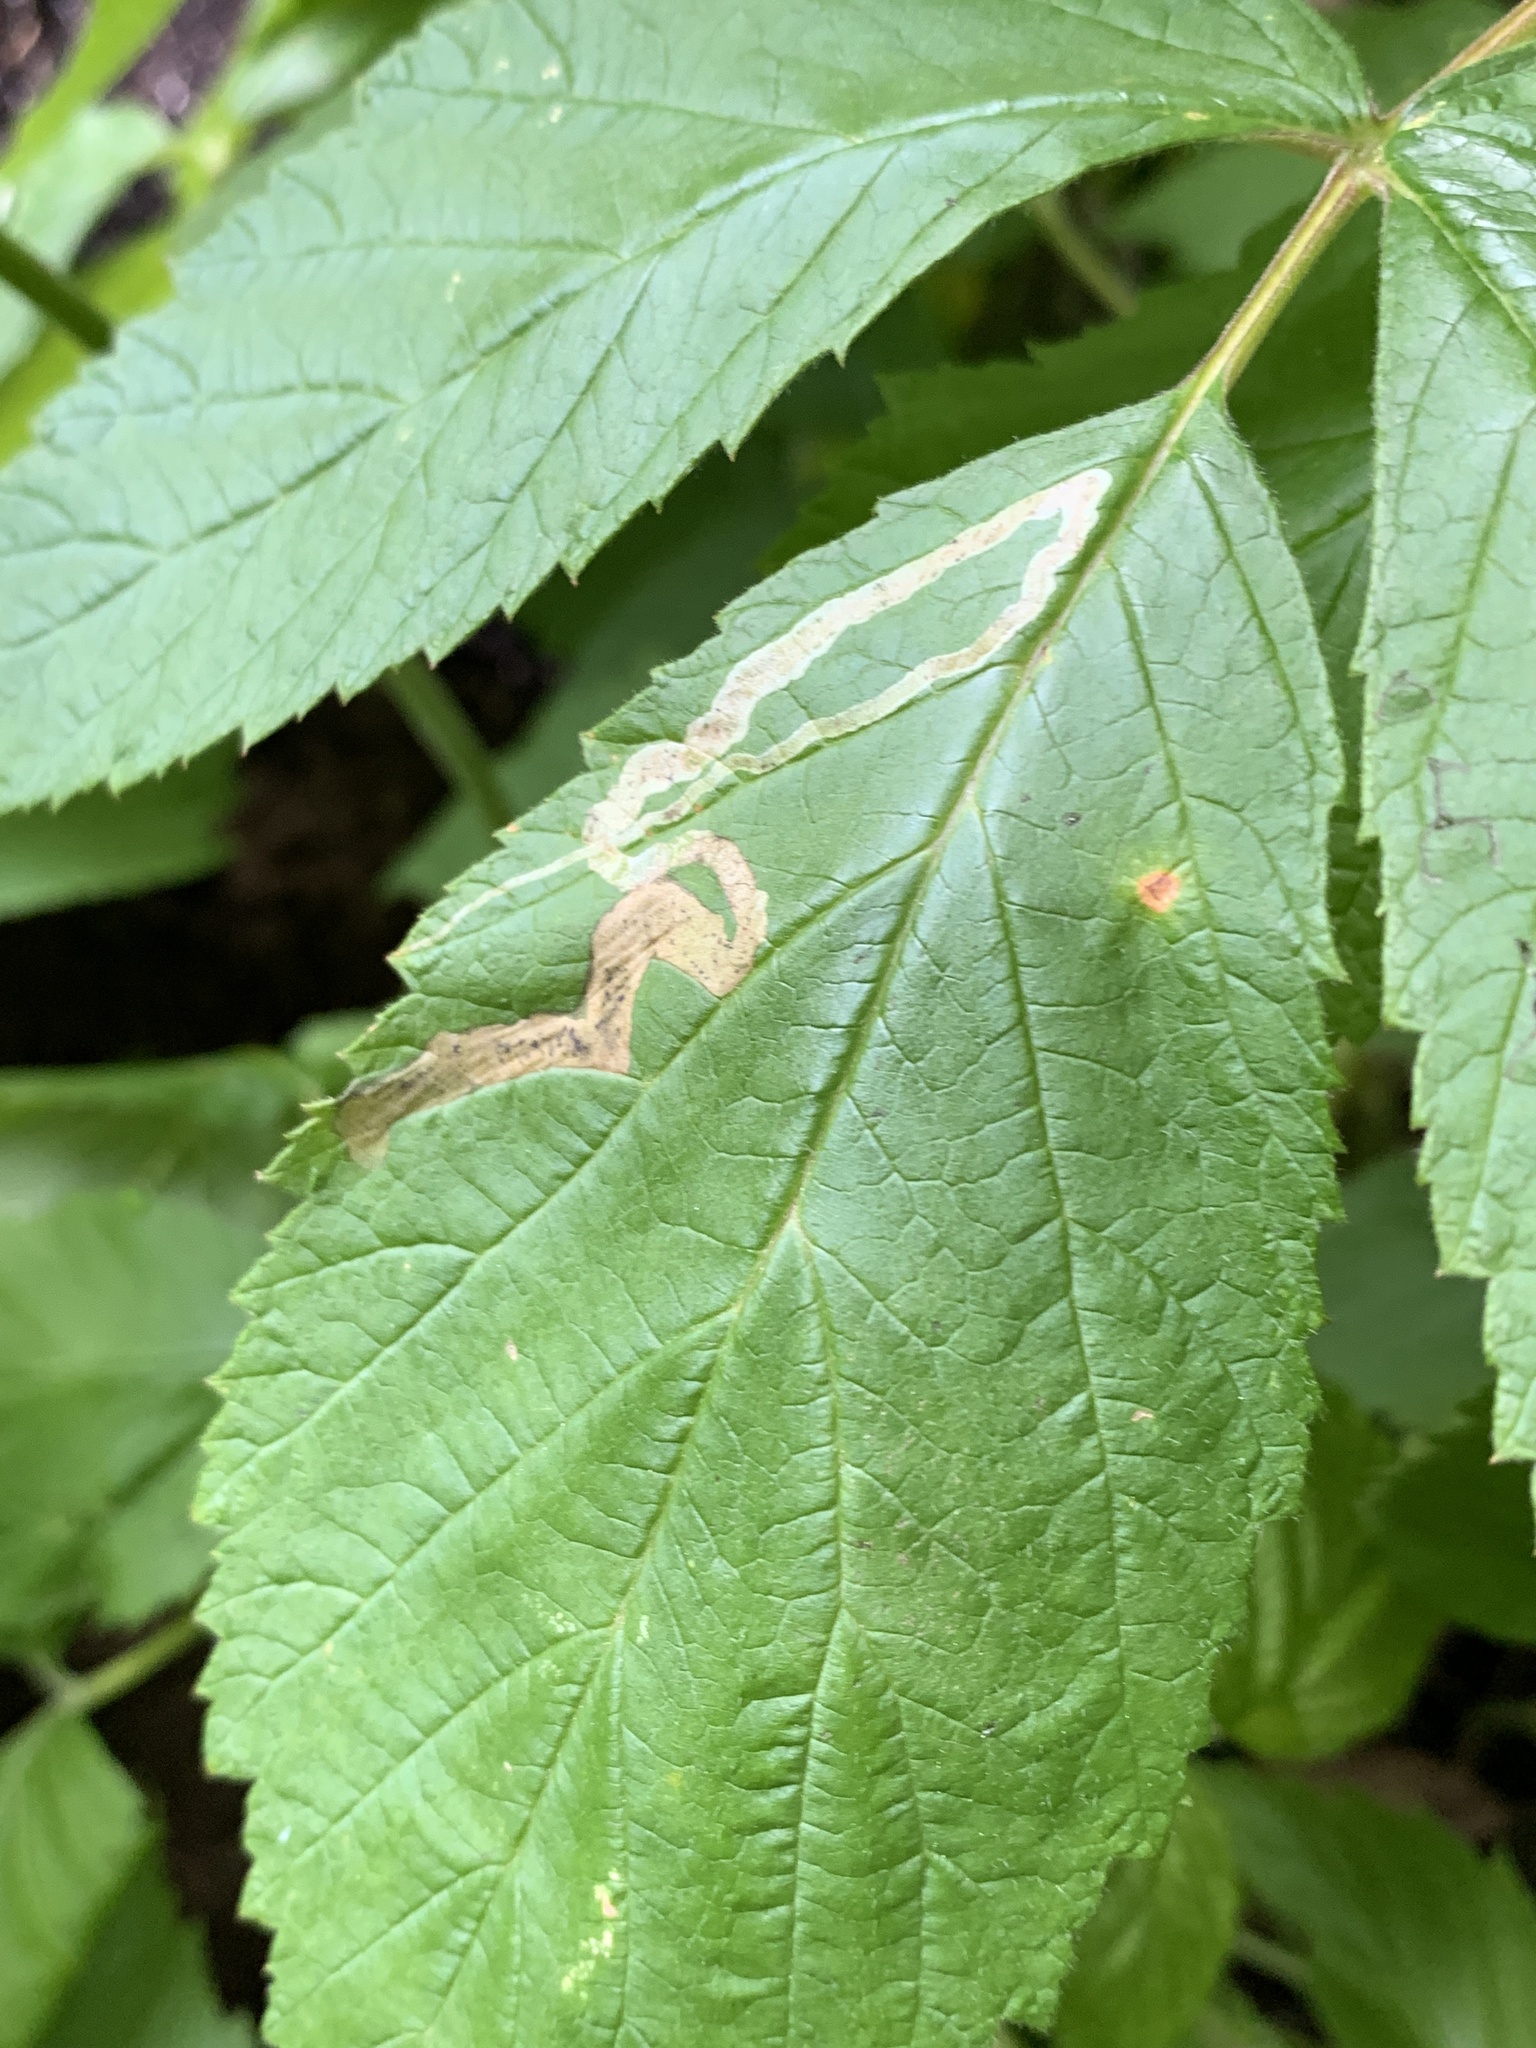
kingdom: Animalia
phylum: Arthropoda
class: Insecta
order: Diptera
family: Agromyzidae
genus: Agromyza
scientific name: Agromyza vockerothi
